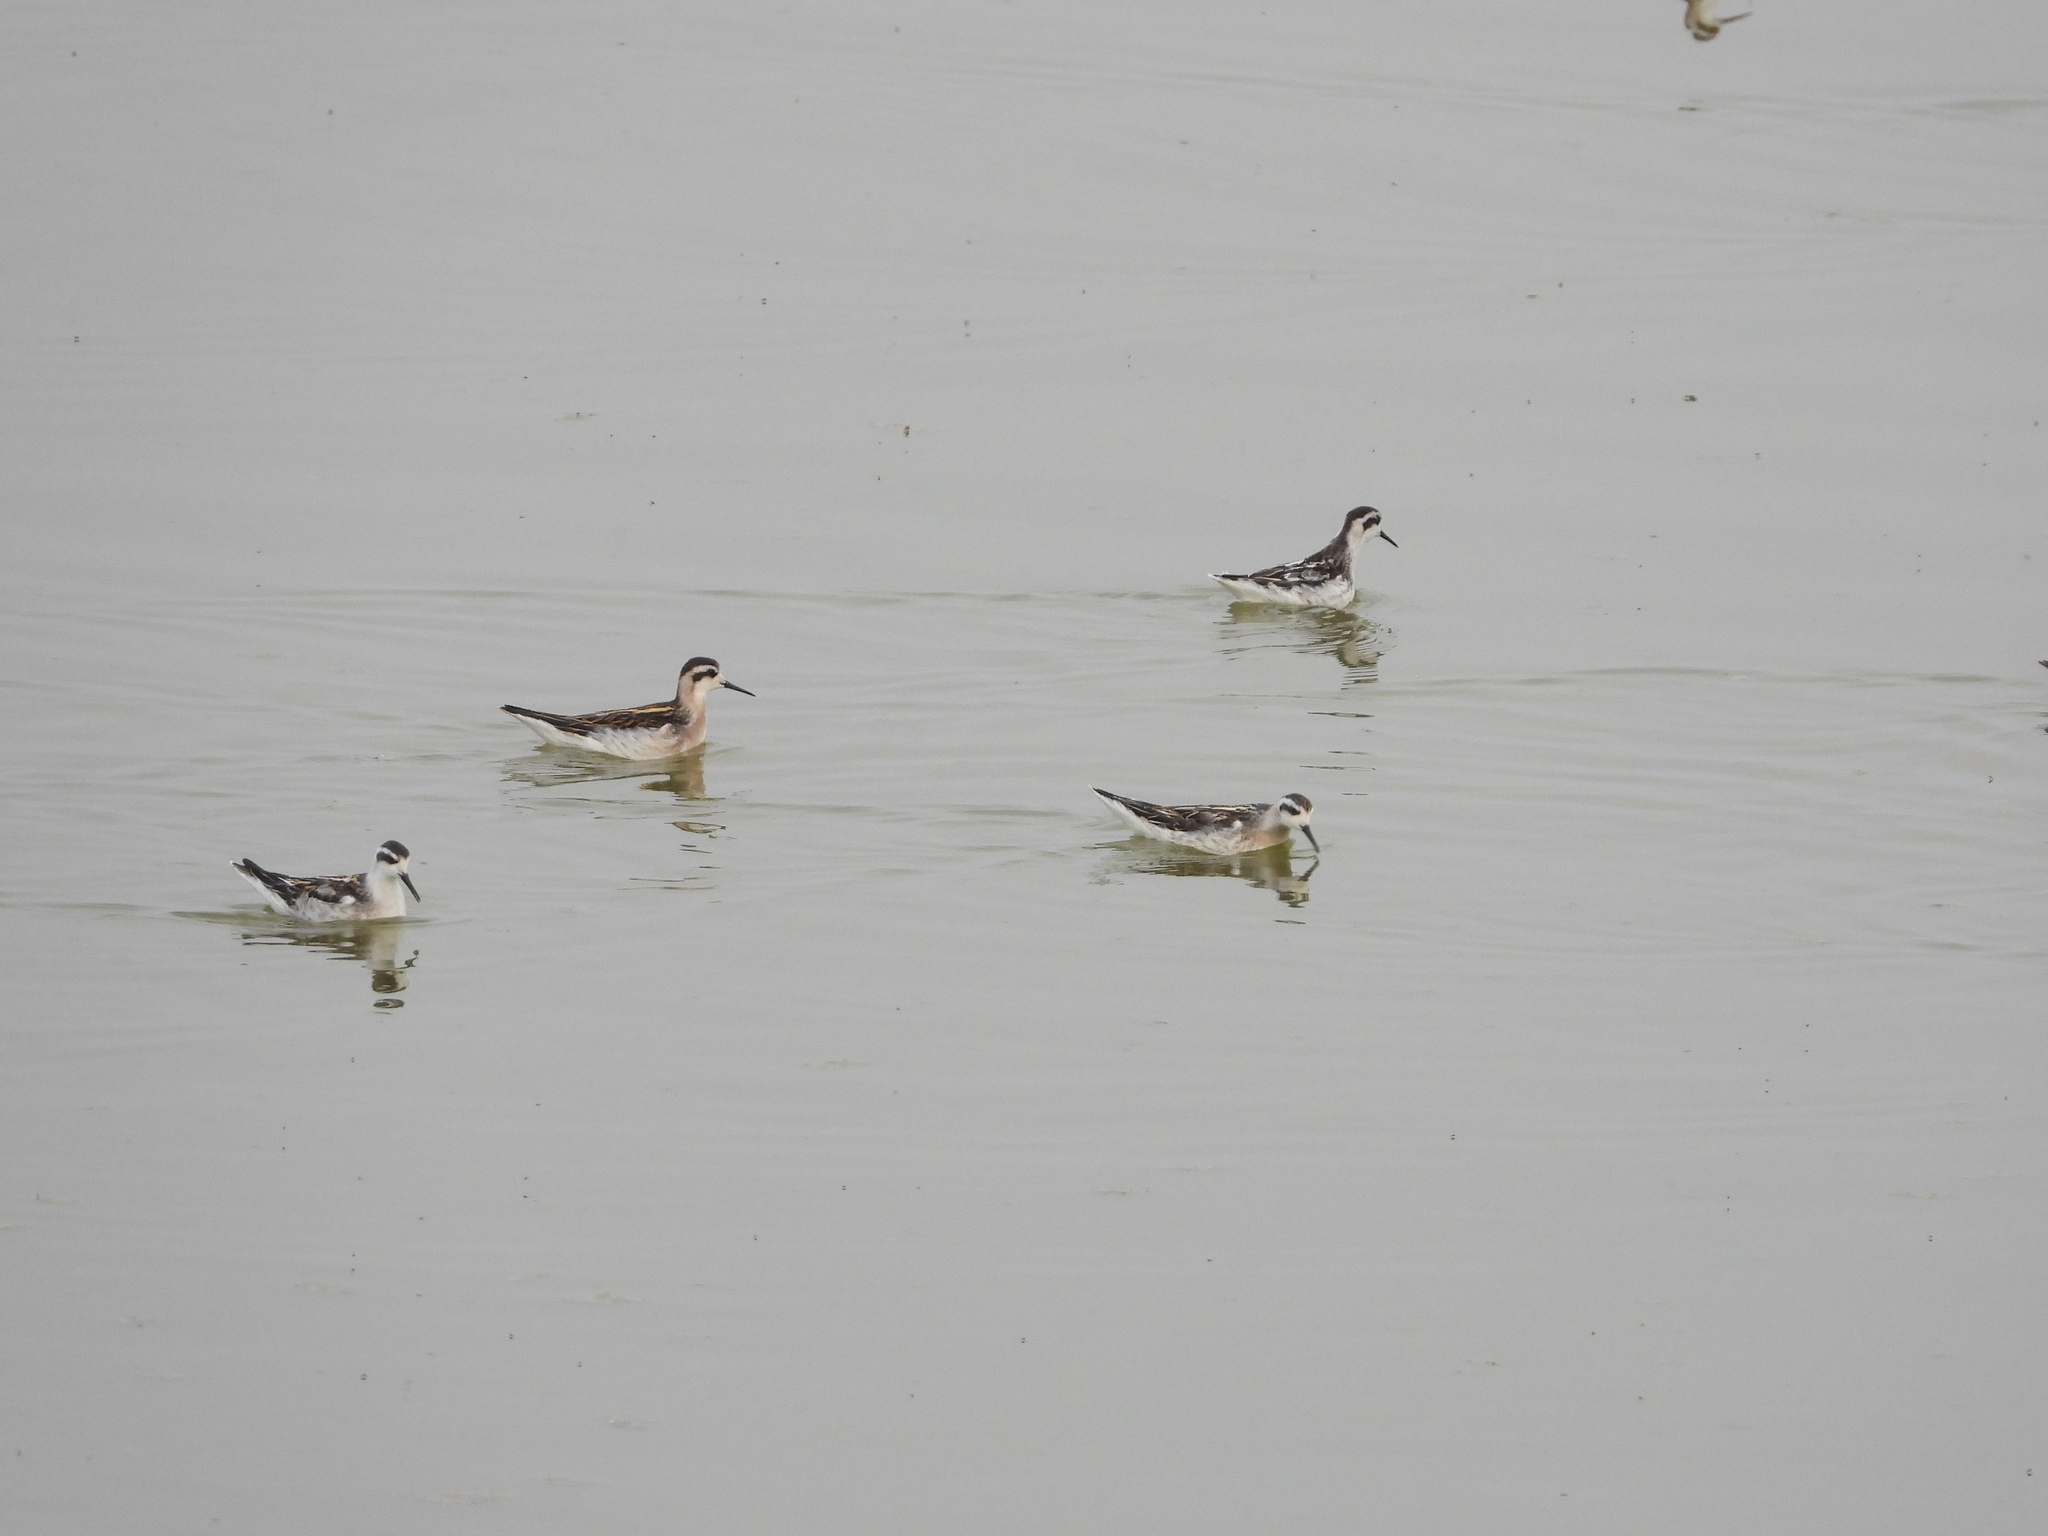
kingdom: Animalia
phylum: Chordata
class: Aves
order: Charadriiformes
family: Scolopacidae
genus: Phalaropus
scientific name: Phalaropus lobatus
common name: Red-necked phalarope
